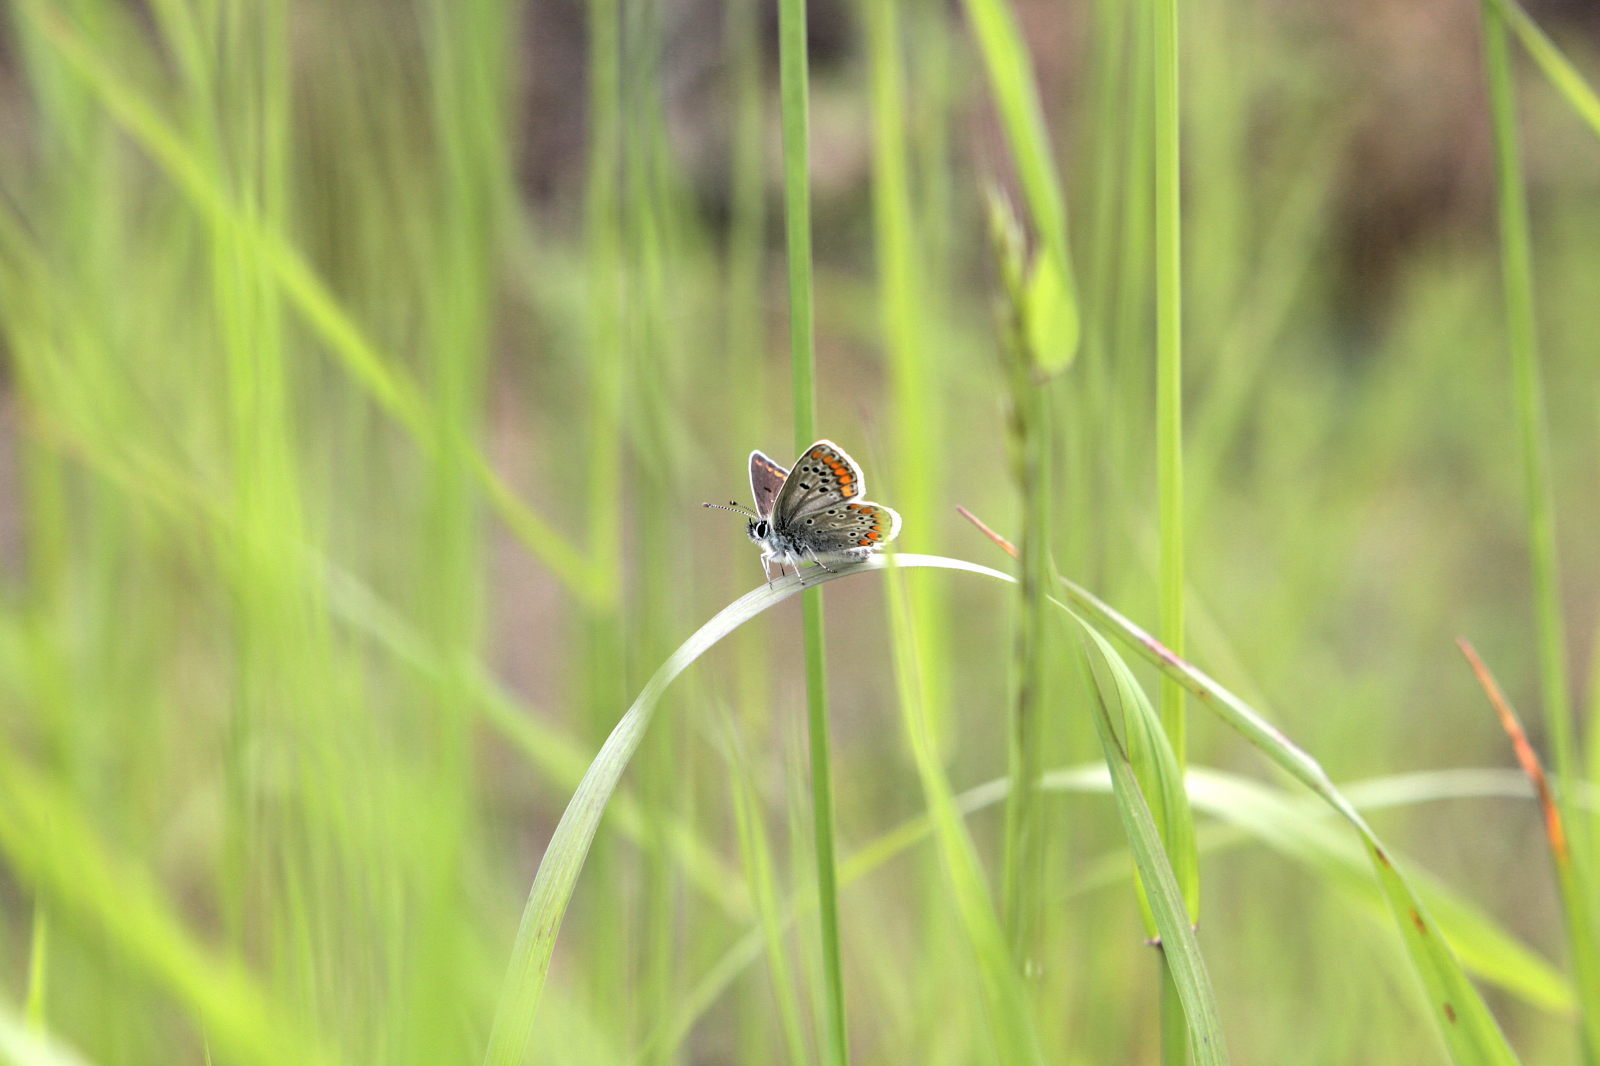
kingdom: Animalia
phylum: Arthropoda
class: Insecta
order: Lepidoptera
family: Lycaenidae
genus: Aricia
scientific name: Aricia agestis
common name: Brown argus
